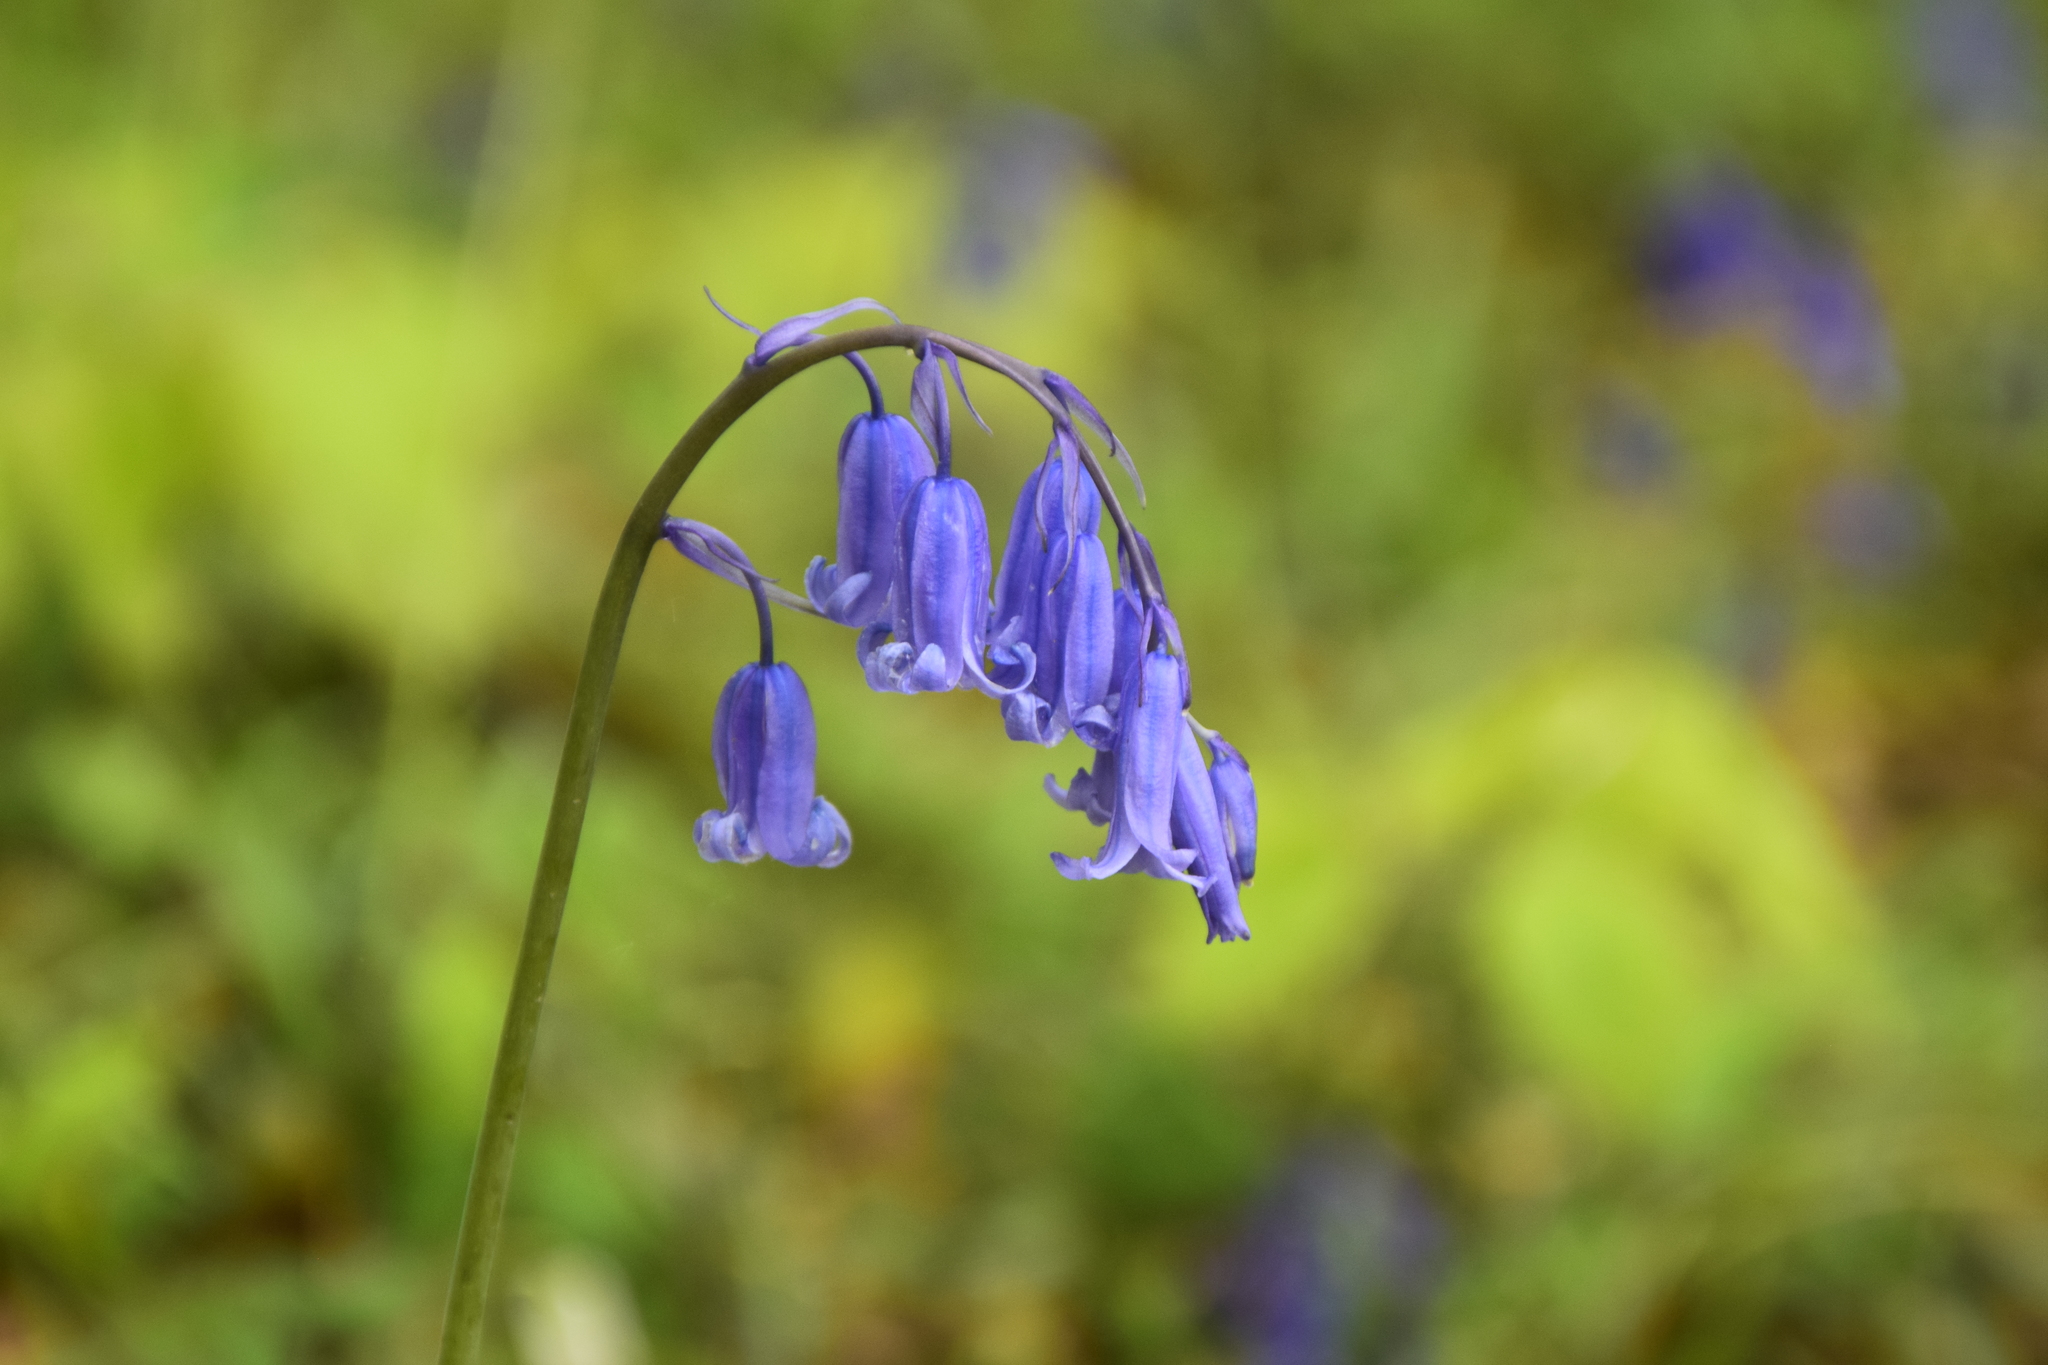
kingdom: Plantae
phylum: Tracheophyta
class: Liliopsida
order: Asparagales
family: Asparagaceae
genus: Hyacinthoides
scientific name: Hyacinthoides non-scripta
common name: Bluebell
